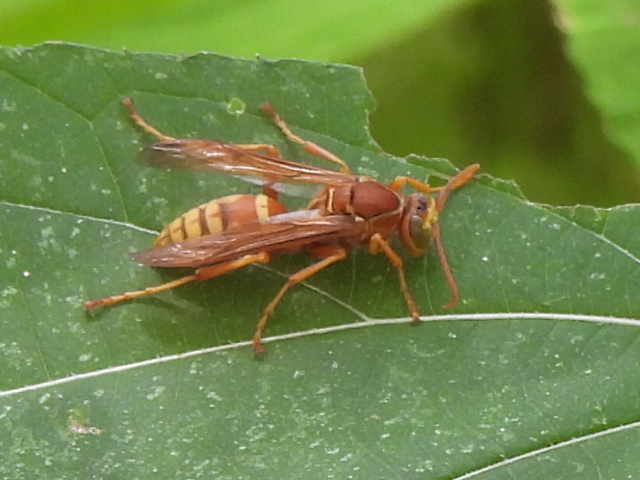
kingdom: Animalia
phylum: Arthropoda
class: Insecta
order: Hymenoptera
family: Eumenidae
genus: Polistes
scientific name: Polistes apachus
